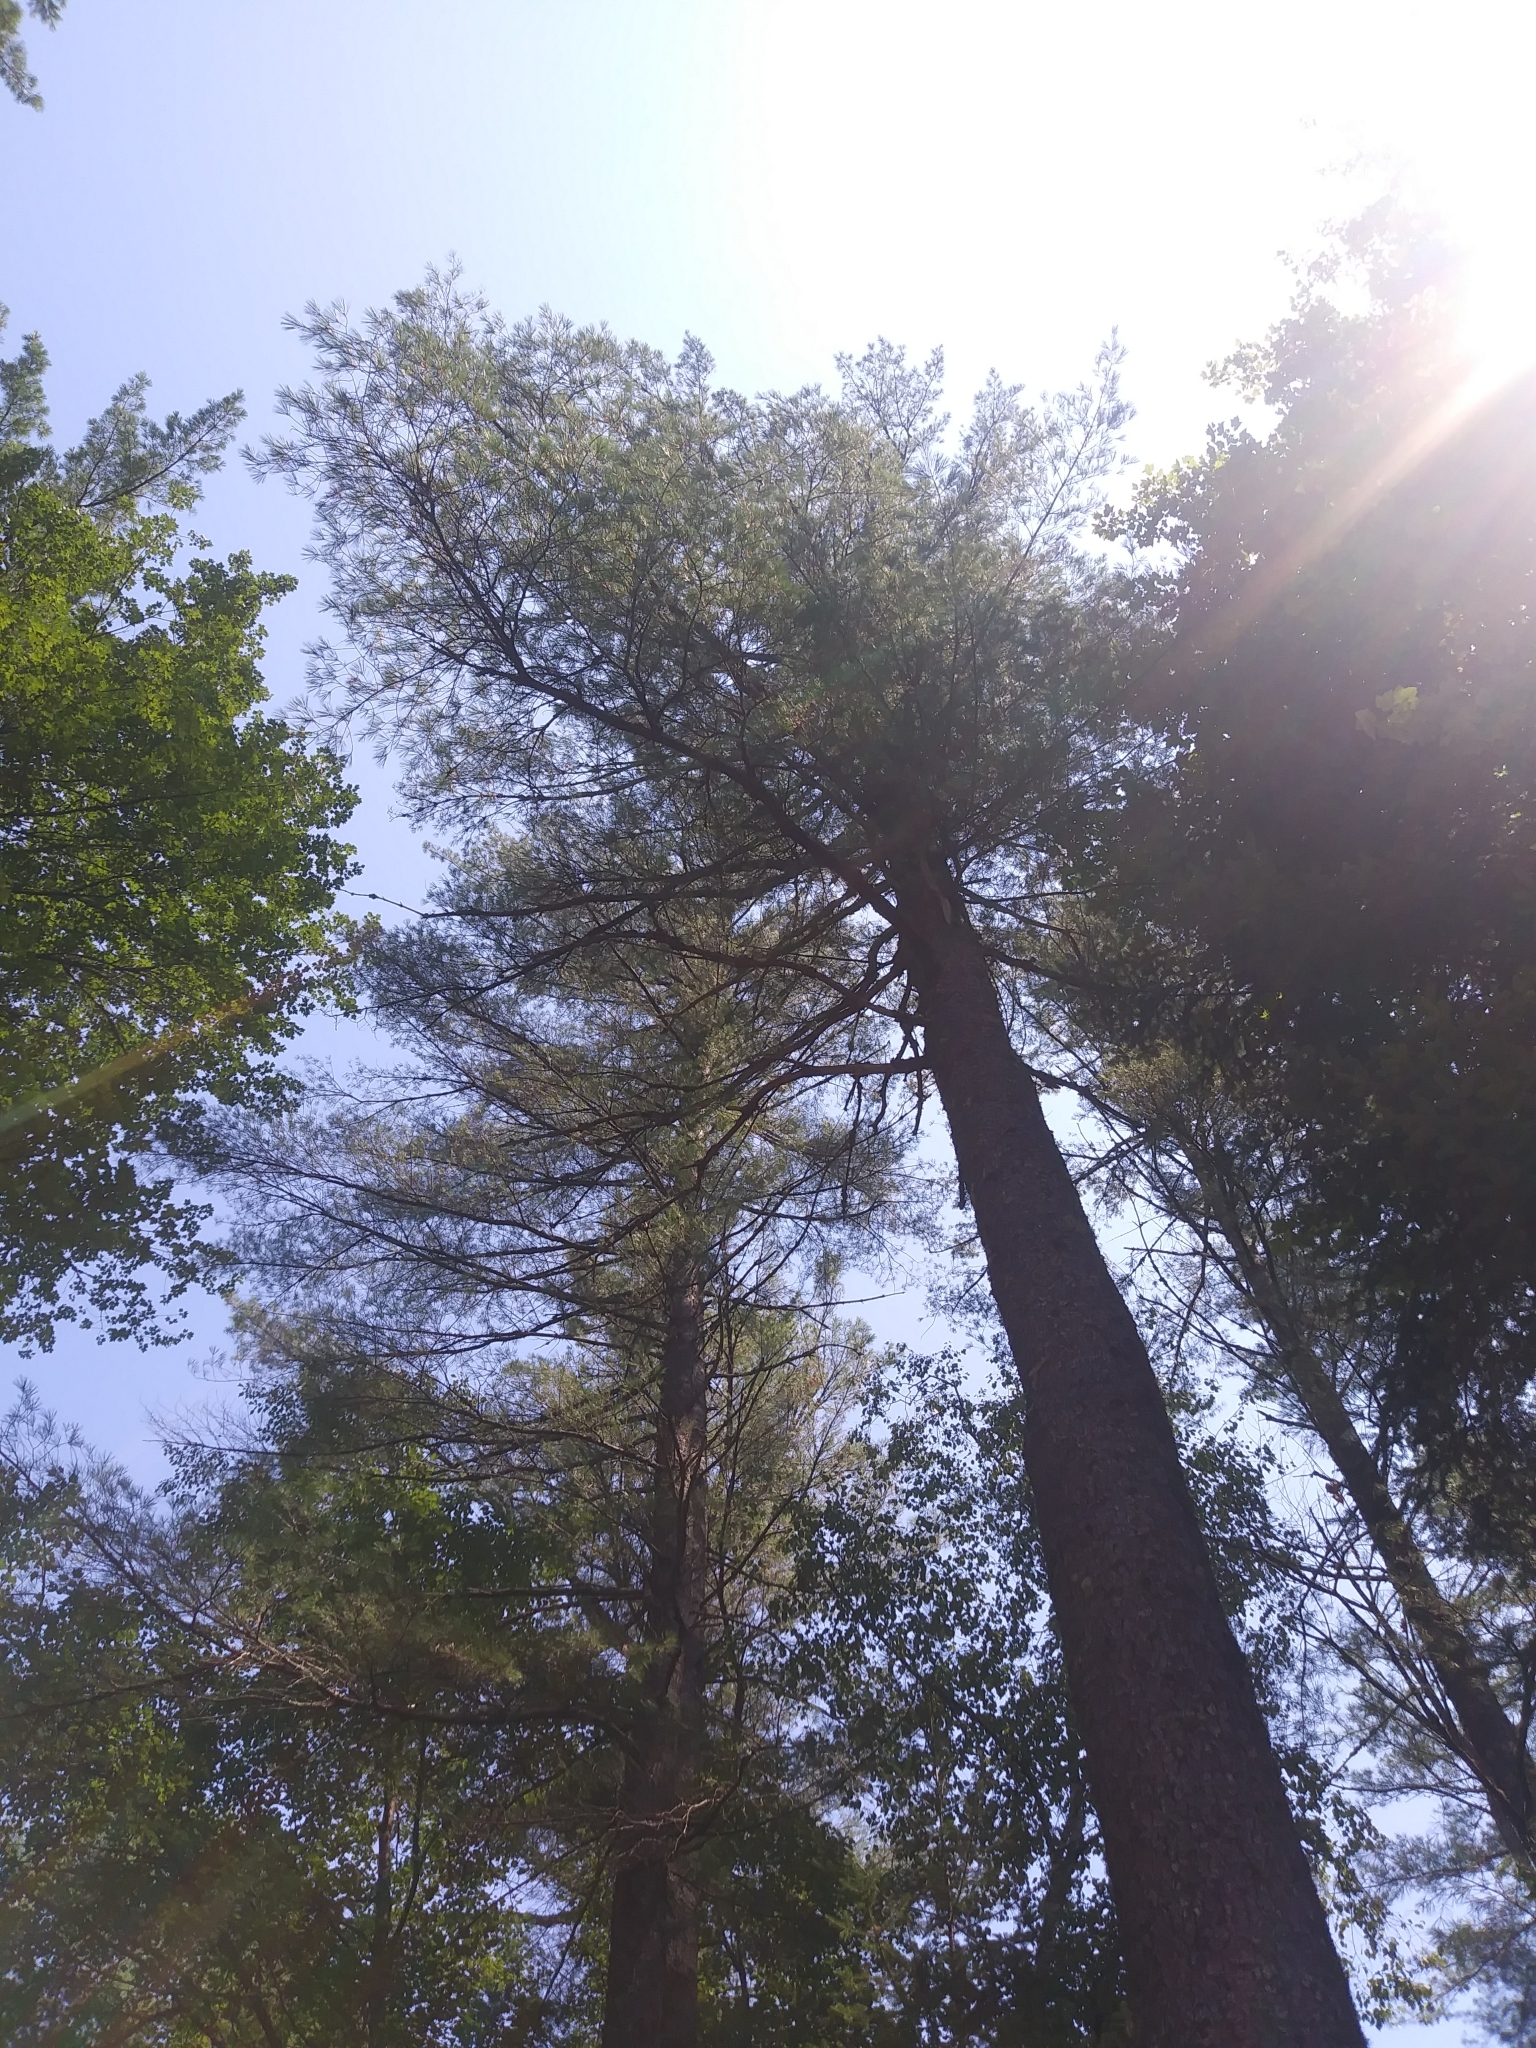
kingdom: Plantae
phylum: Tracheophyta
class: Pinopsida
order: Pinales
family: Pinaceae
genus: Pinus
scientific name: Pinus strobus
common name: Weymouth pine
